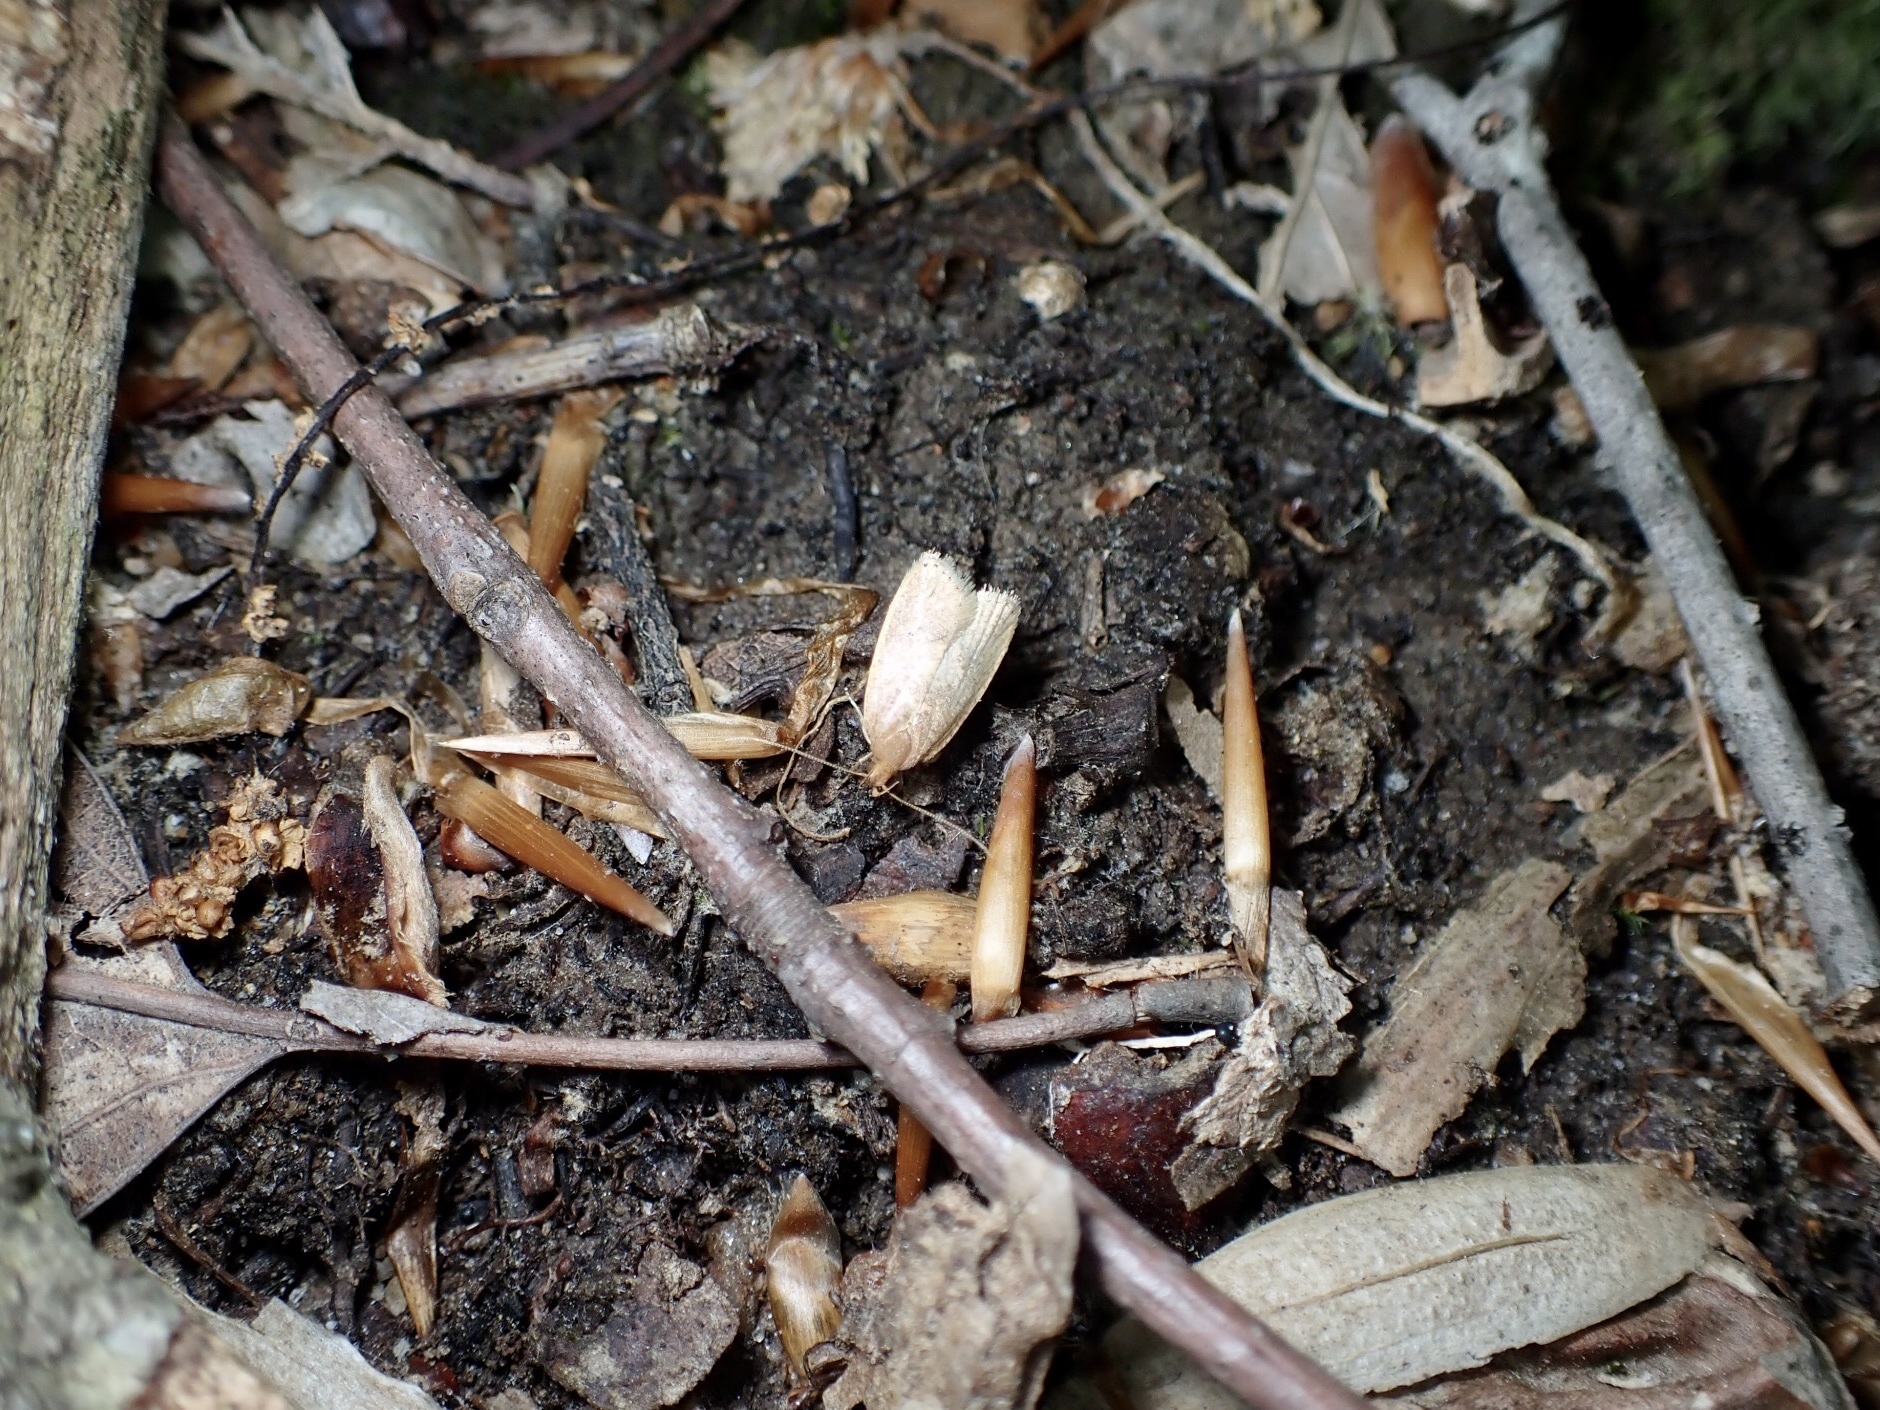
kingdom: Animalia
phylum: Arthropoda
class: Insecta
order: Lepidoptera
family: Depressariidae
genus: Psilocorsis
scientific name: Psilocorsis reflexella
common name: Dotted leaftier moth
